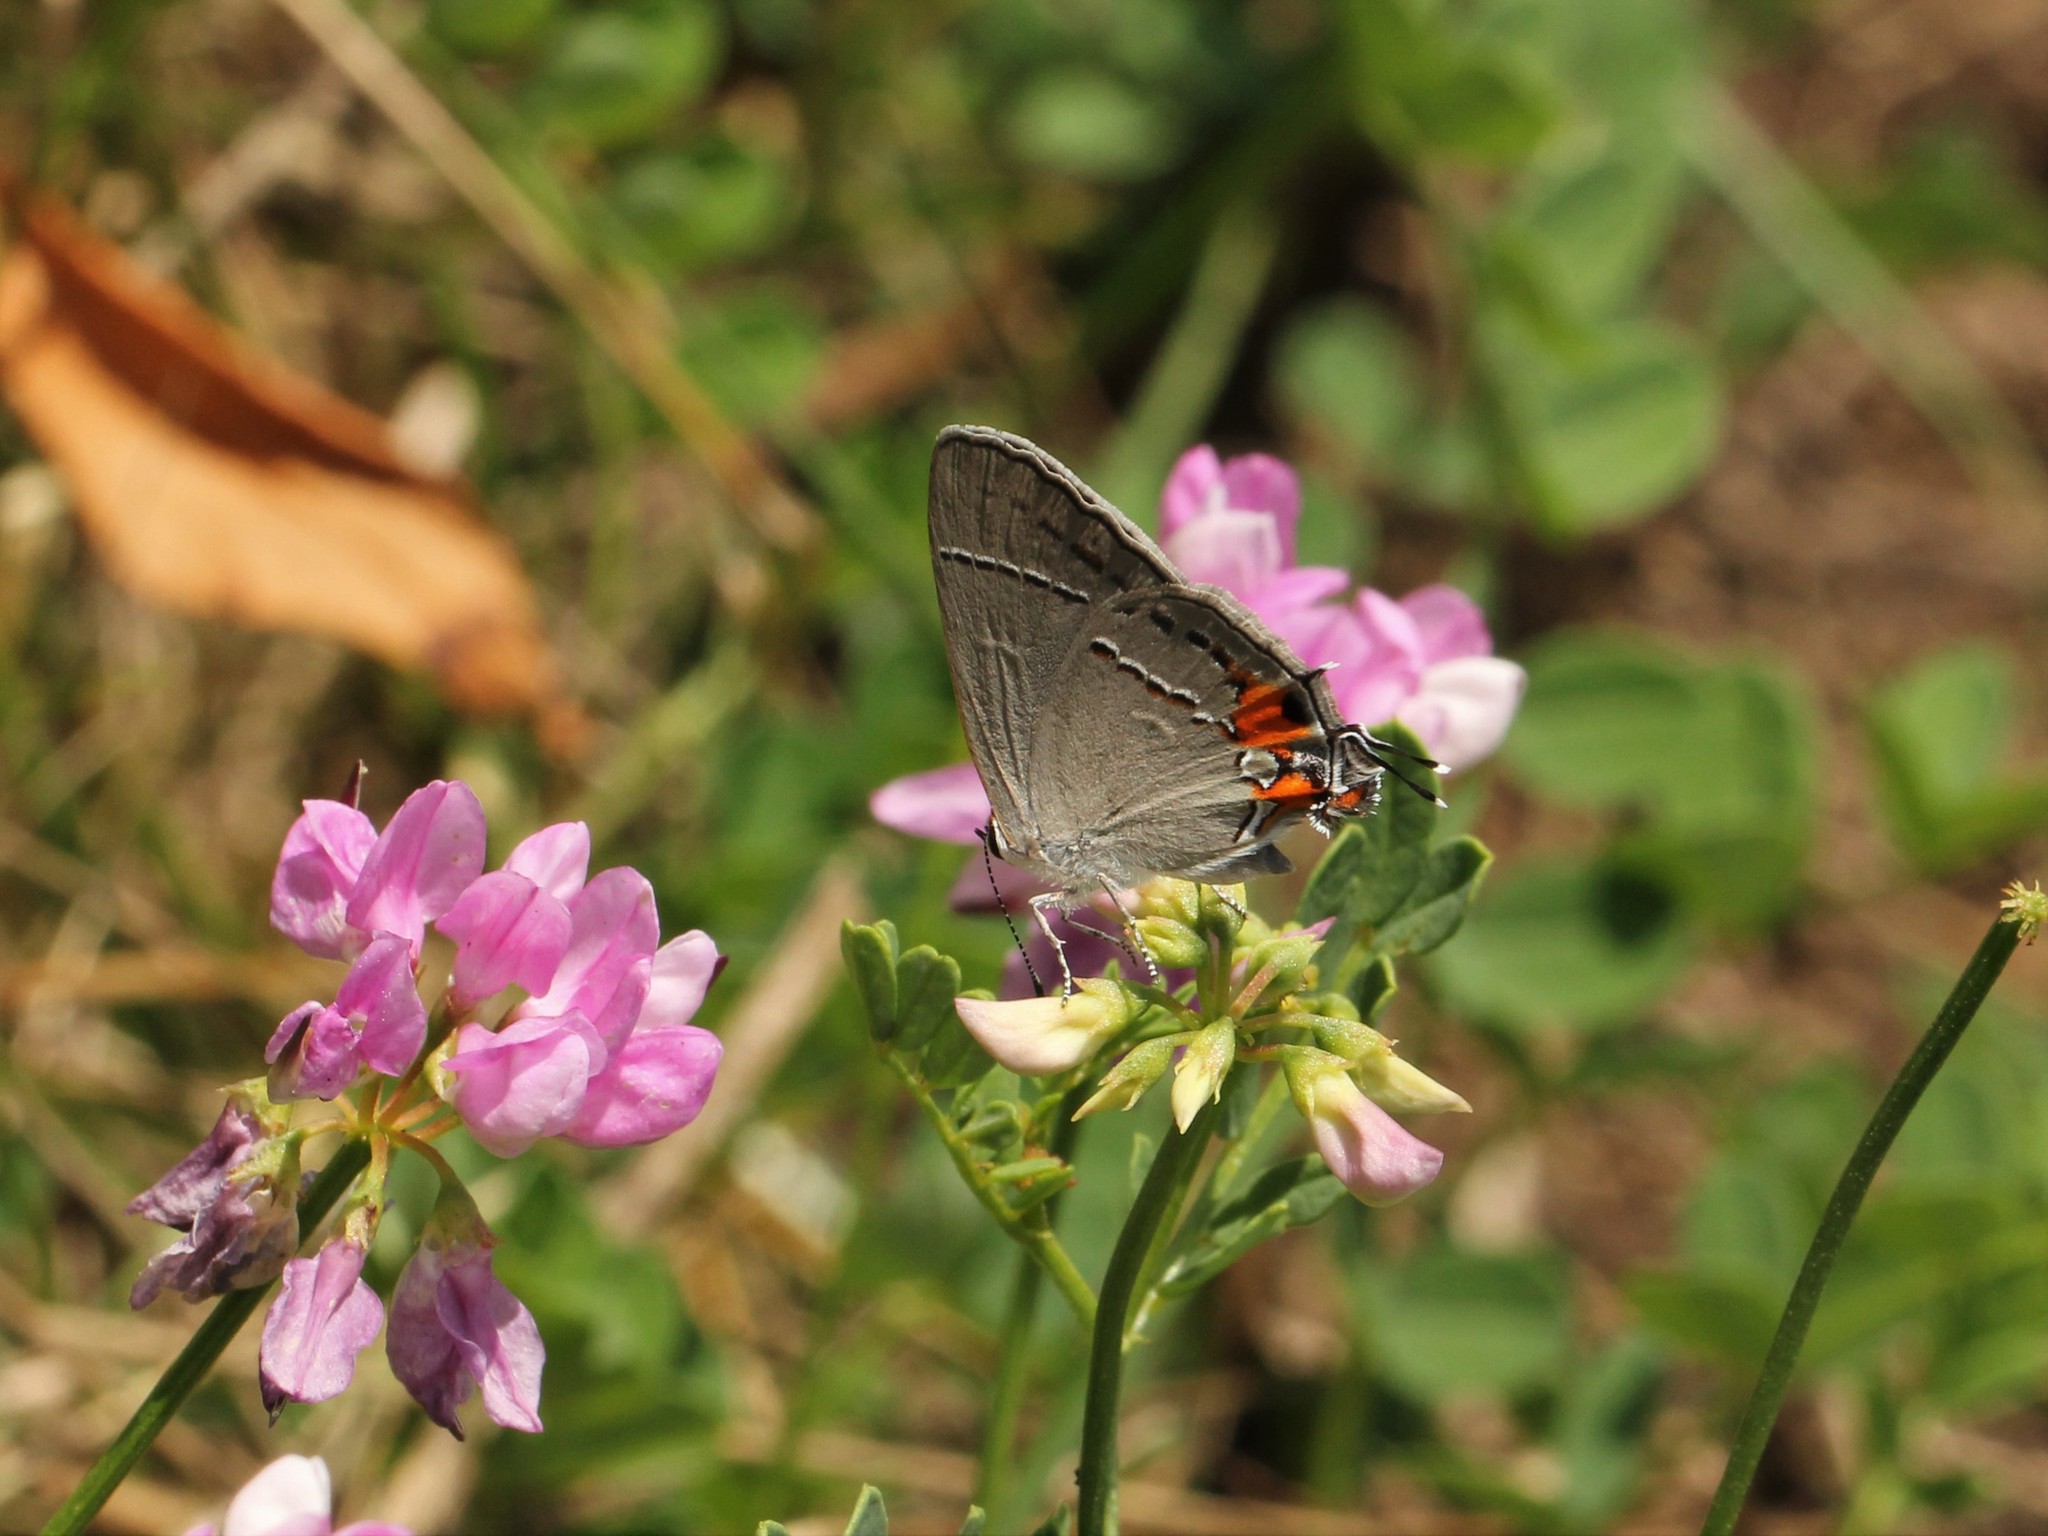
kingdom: Animalia
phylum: Arthropoda
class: Insecta
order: Lepidoptera
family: Lycaenidae
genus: Strymon
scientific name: Strymon melinus
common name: Gray hairstreak
